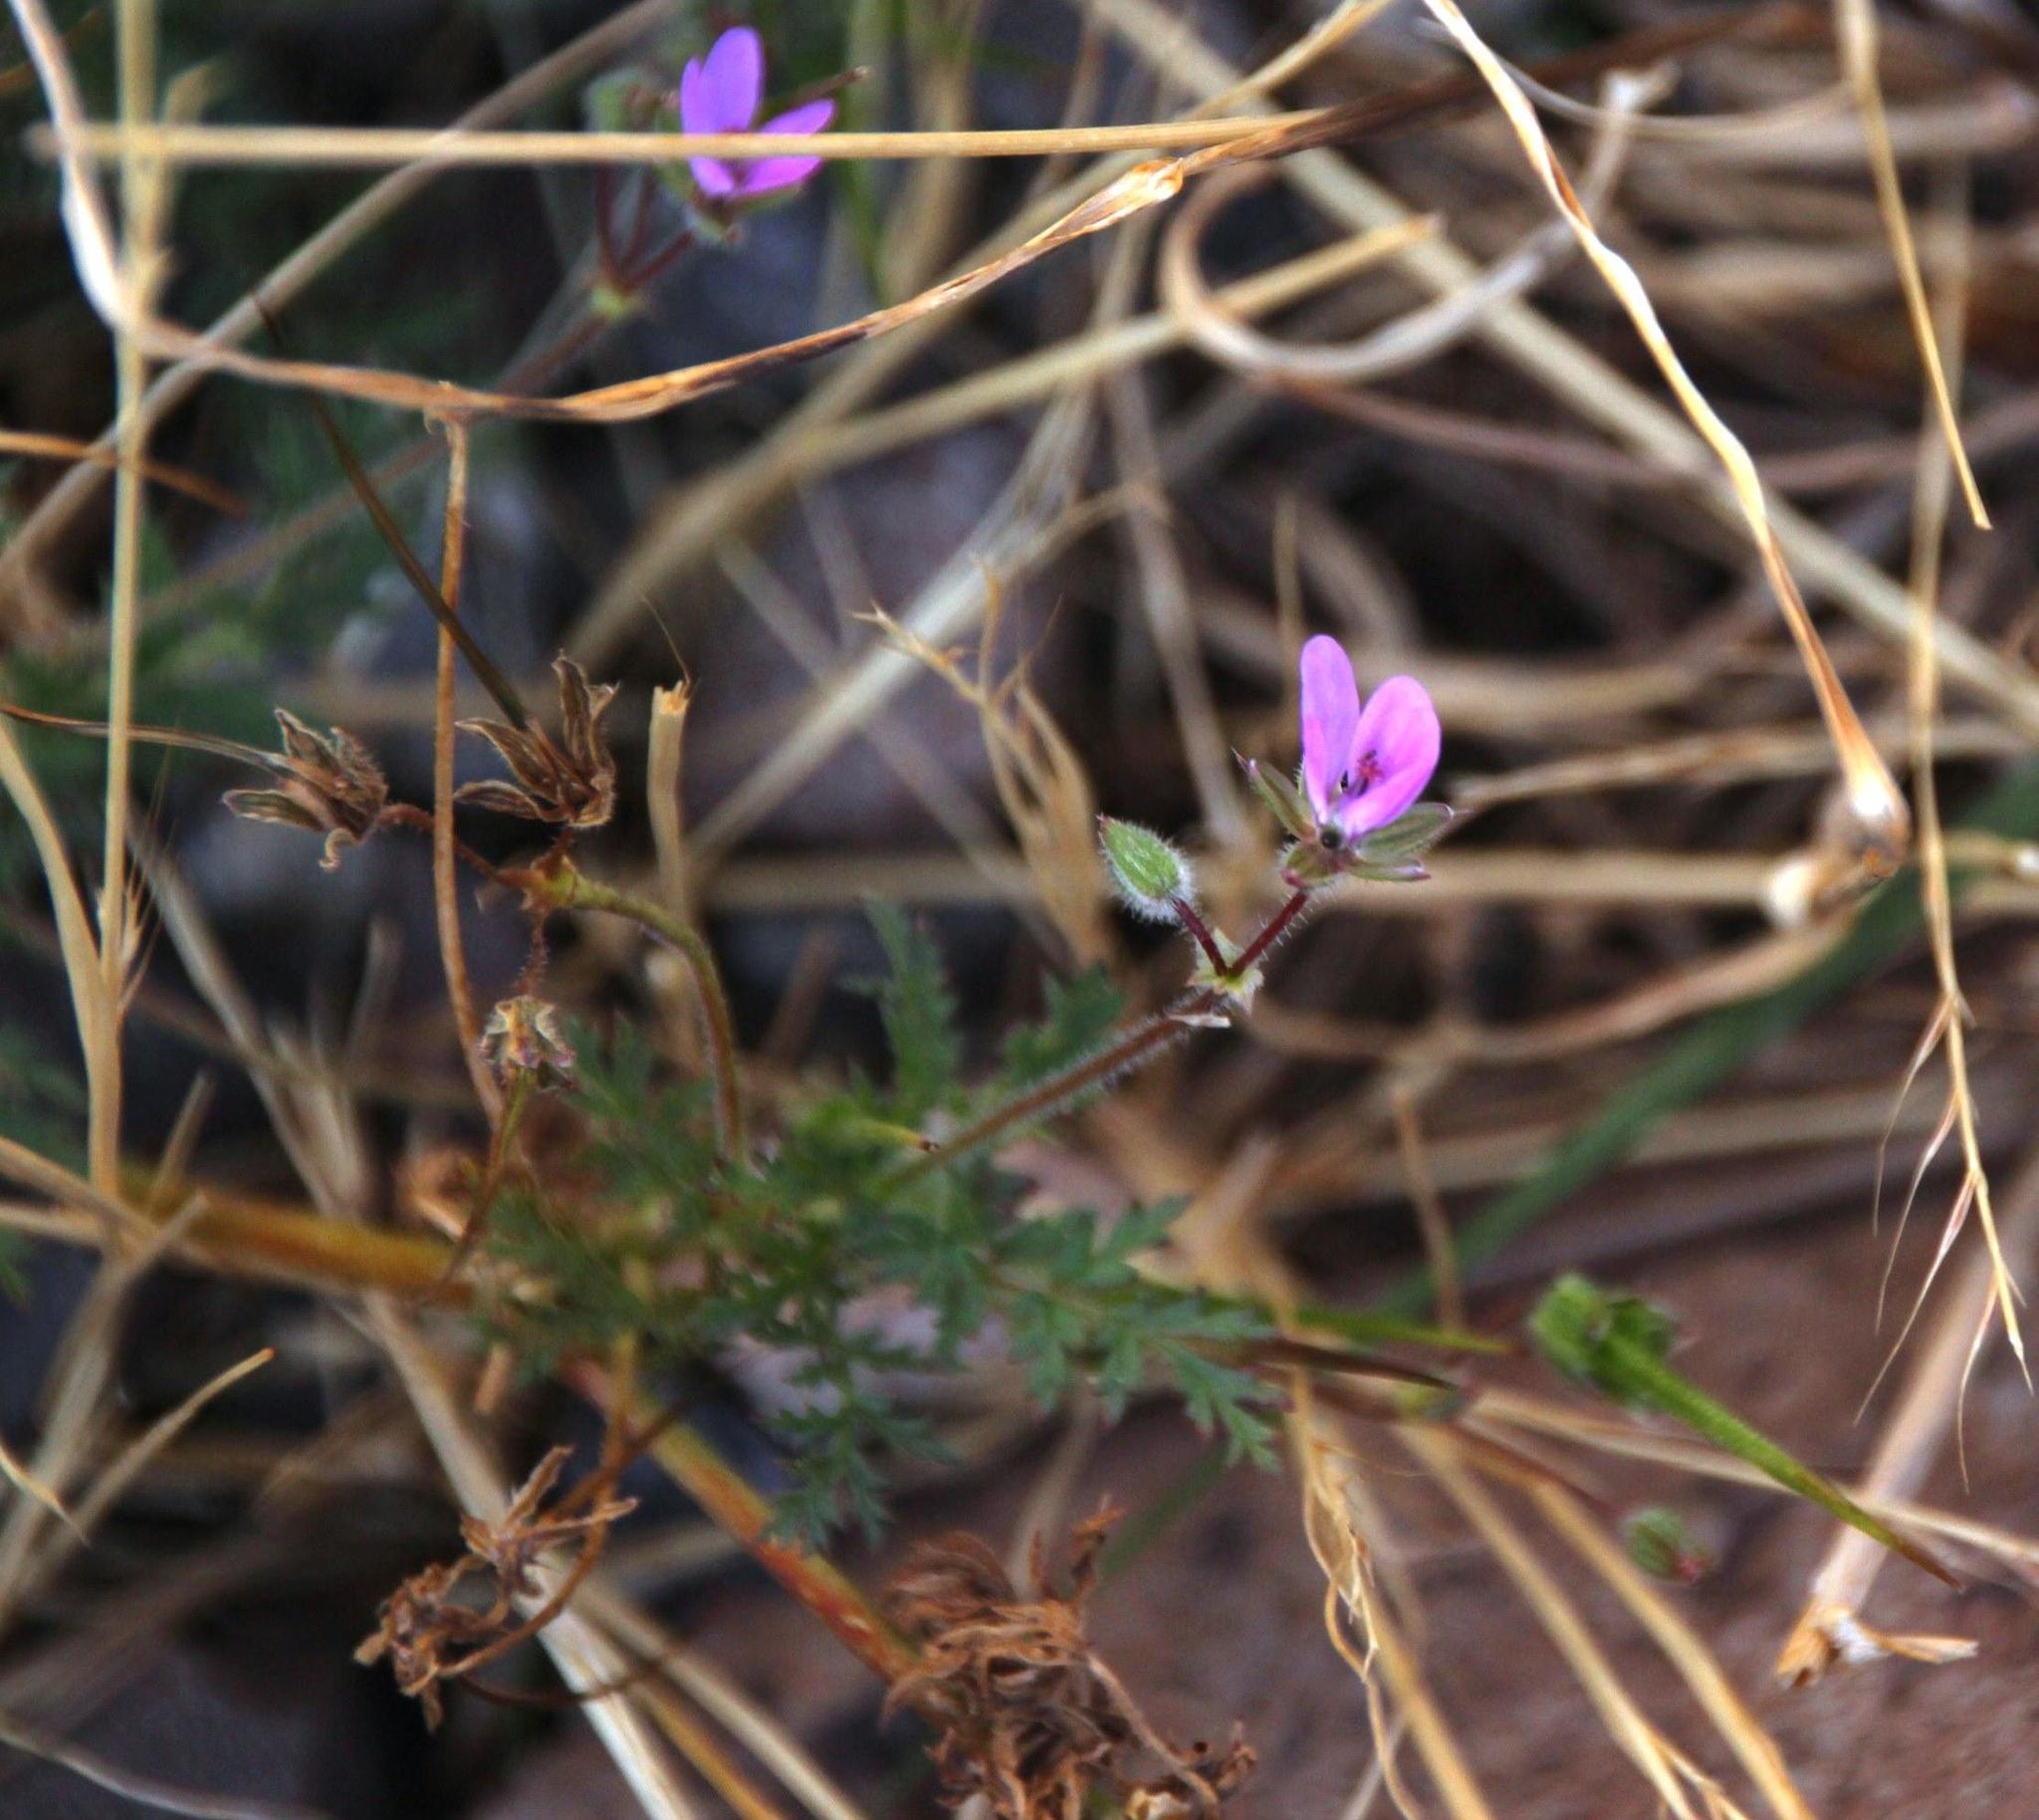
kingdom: Plantae
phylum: Tracheophyta
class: Magnoliopsida
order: Geraniales
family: Geraniaceae
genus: Erodium
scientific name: Erodium cicutarium
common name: Common stork's-bill
